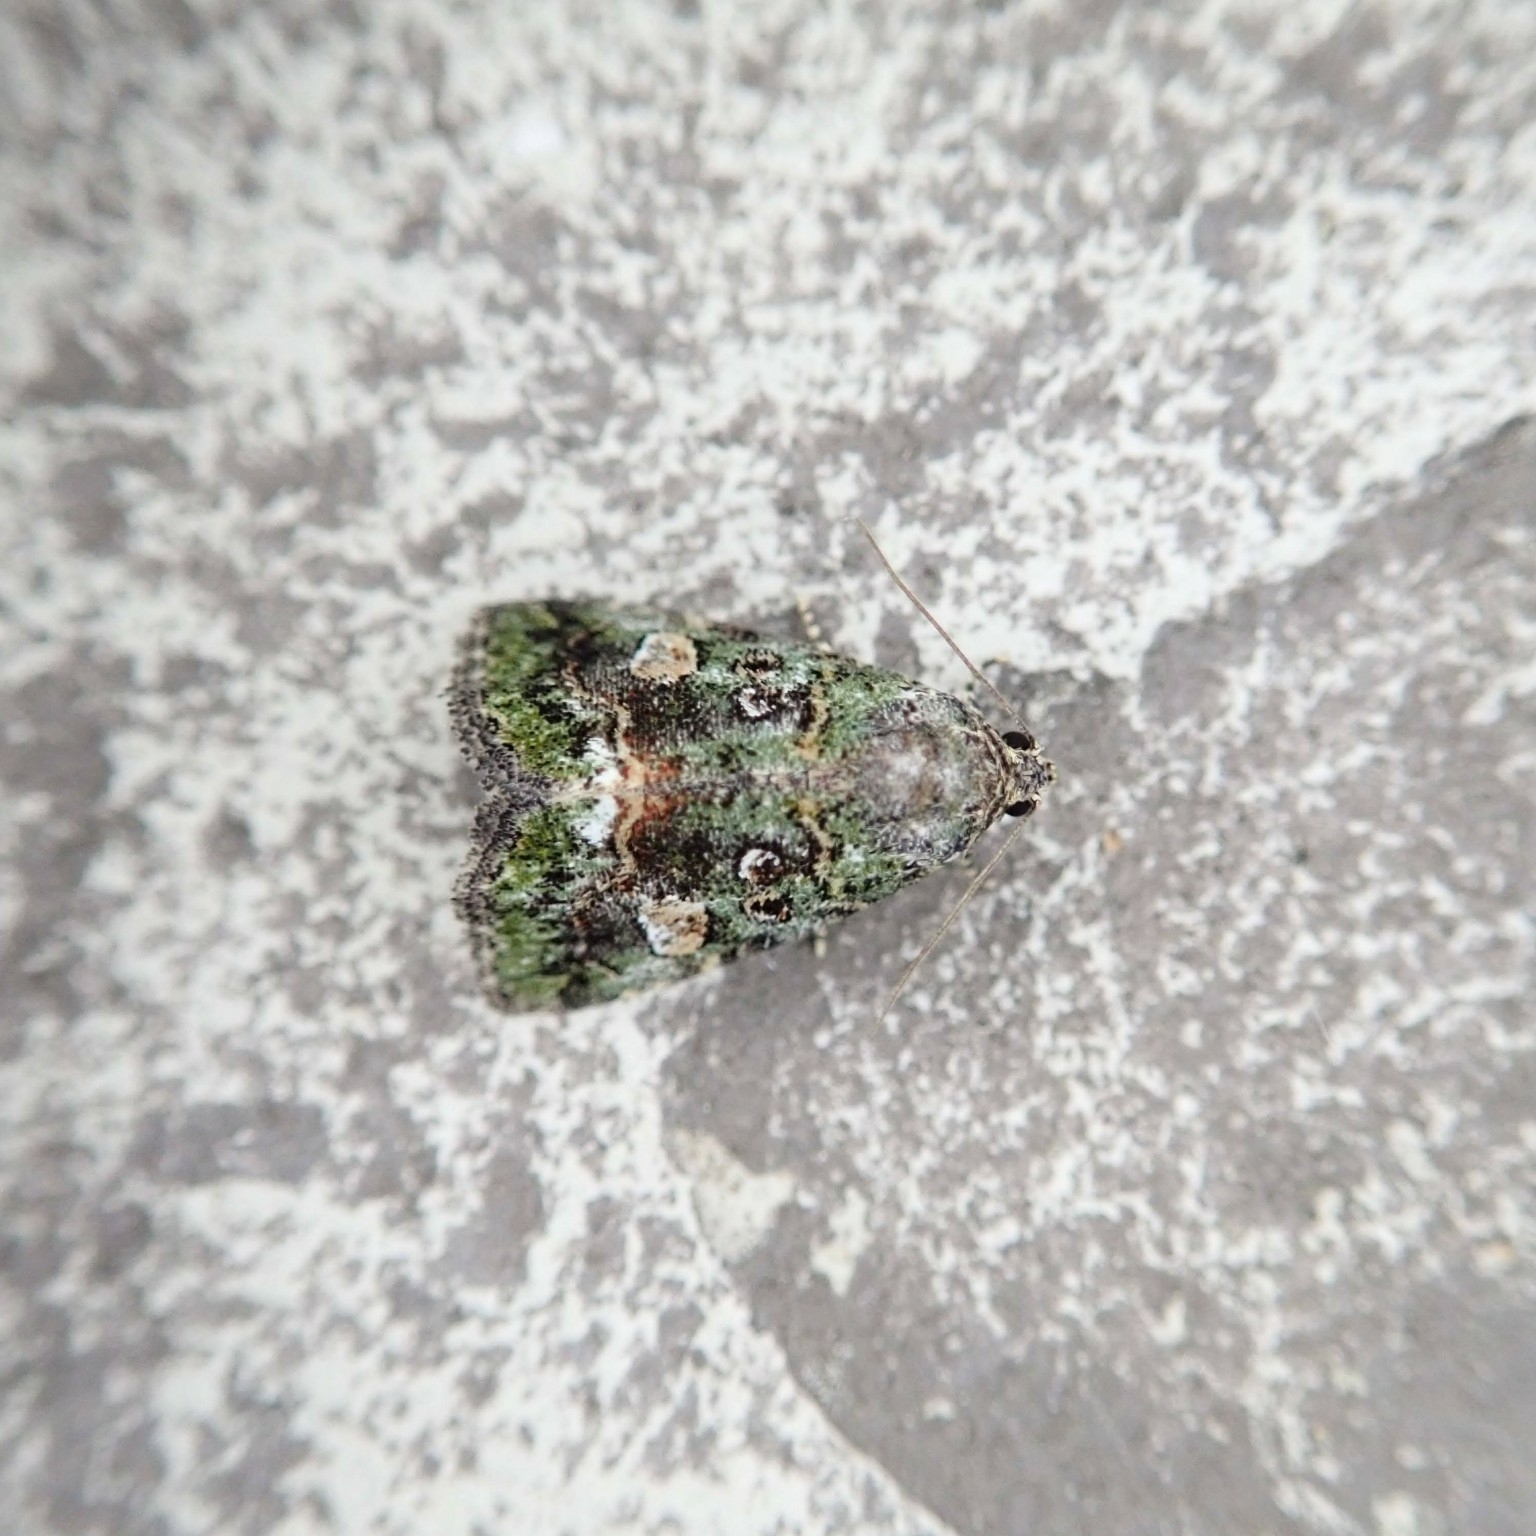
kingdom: Animalia
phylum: Arthropoda
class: Insecta
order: Lepidoptera
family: Noctuidae
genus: Lithacodia
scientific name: Lithacodia musta
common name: Small mossy glyph
